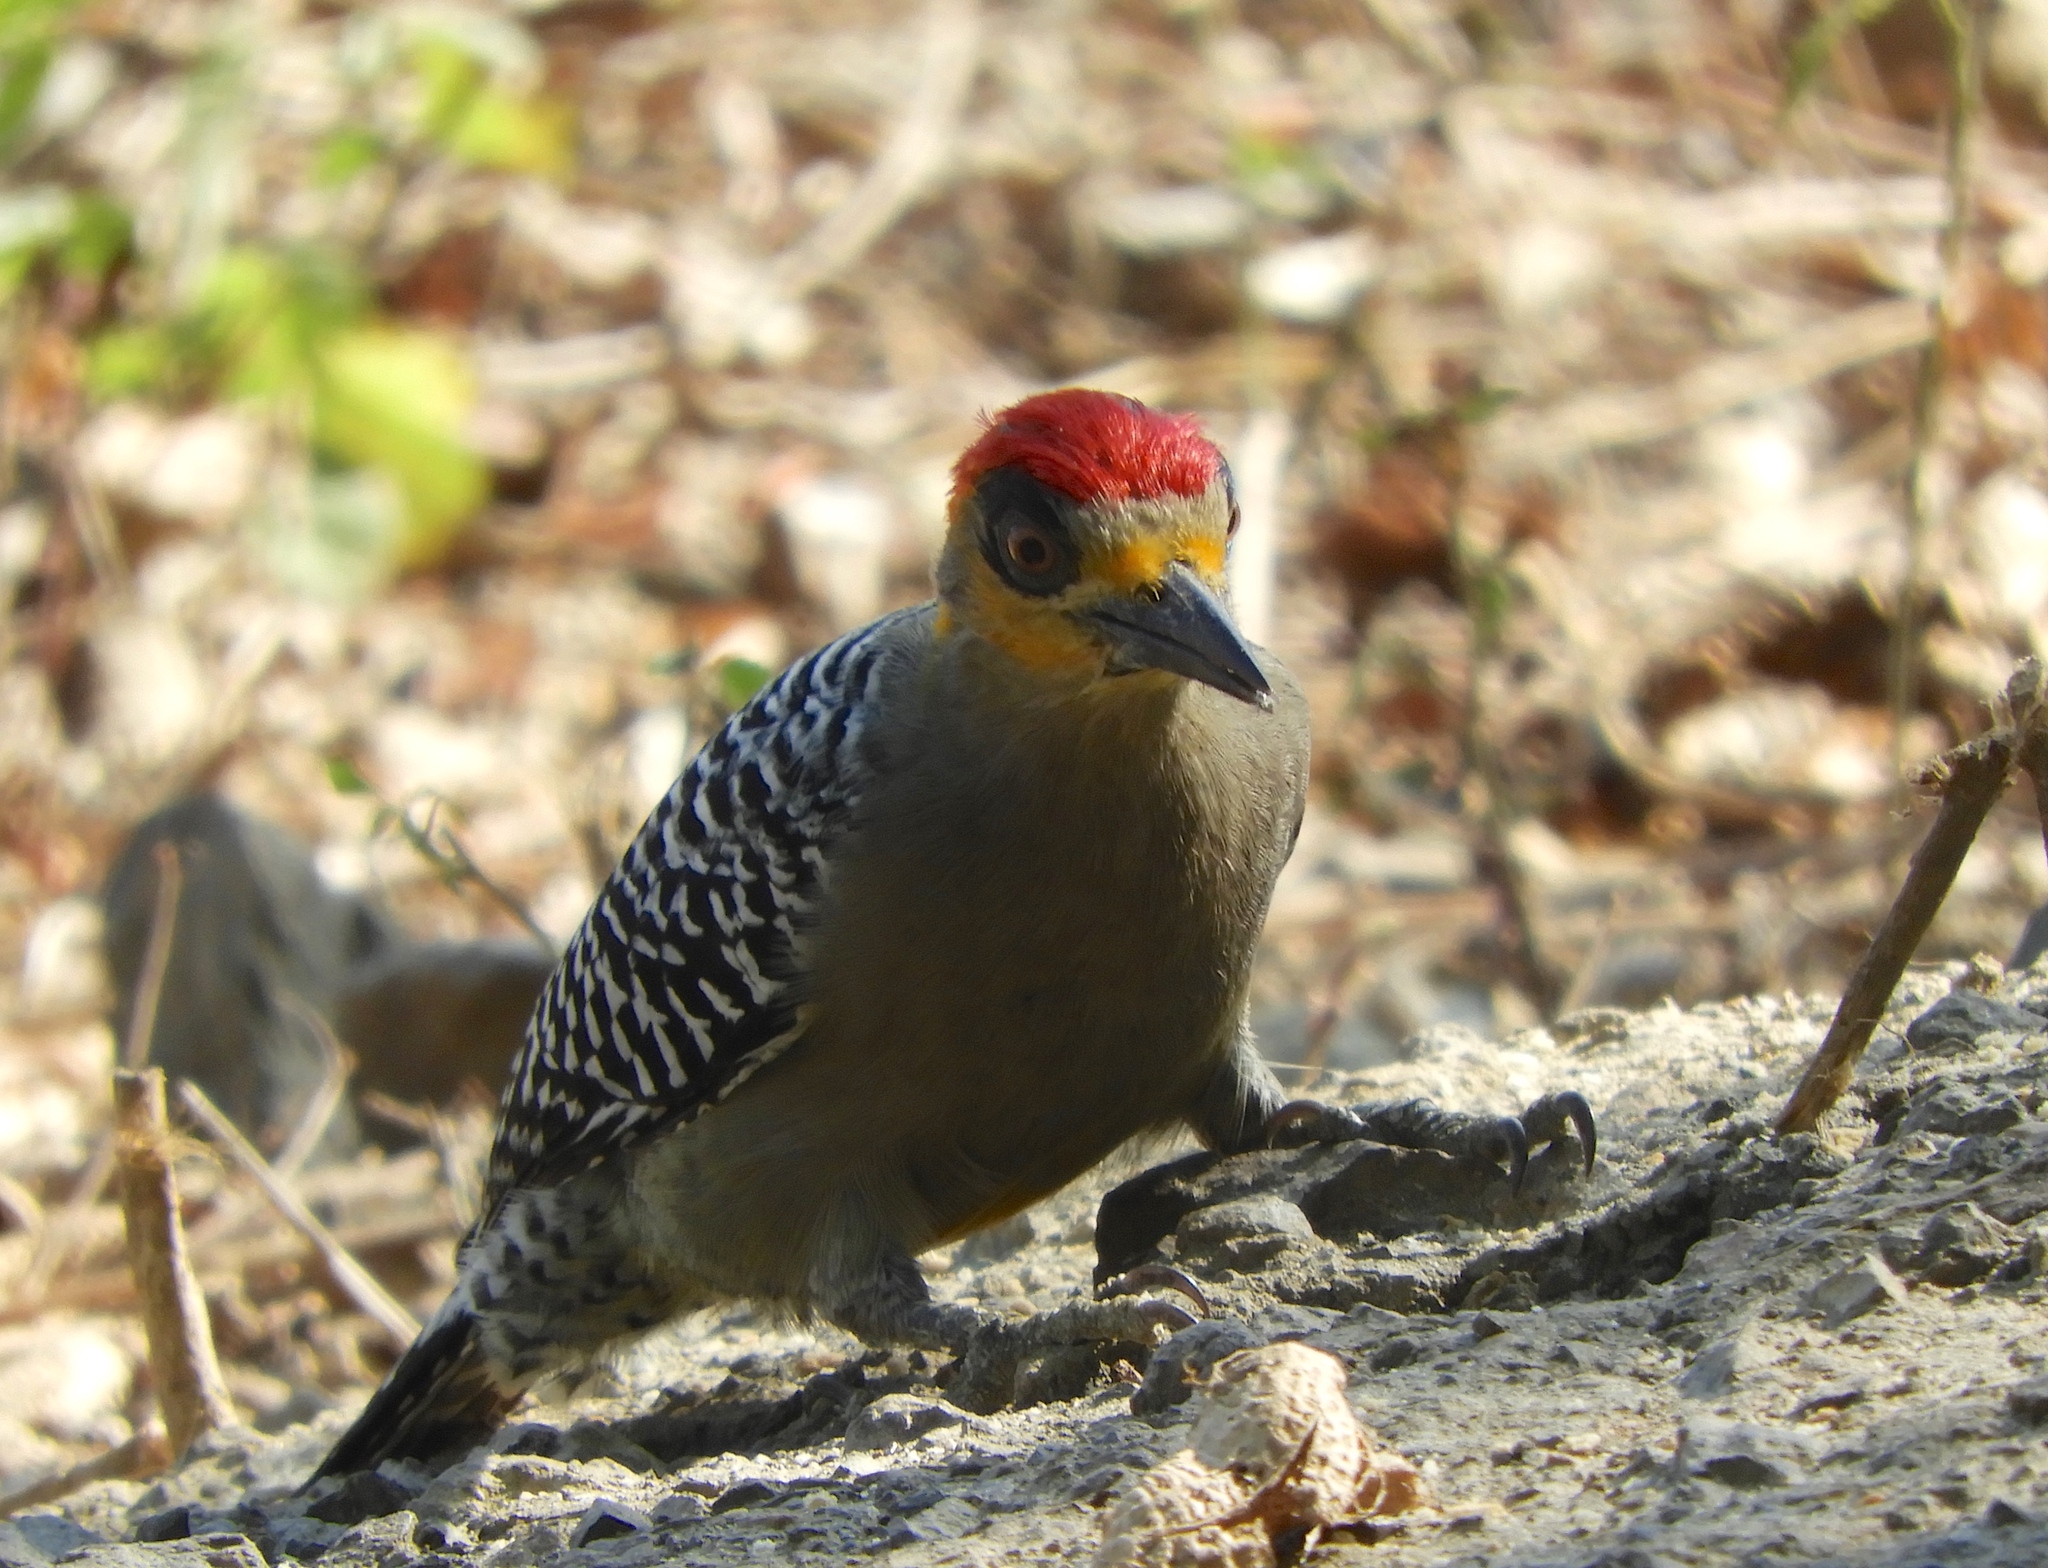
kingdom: Animalia
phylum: Chordata
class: Aves
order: Piciformes
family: Picidae
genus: Melanerpes
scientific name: Melanerpes chrysogenys
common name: Golden-cheeked woodpecker
